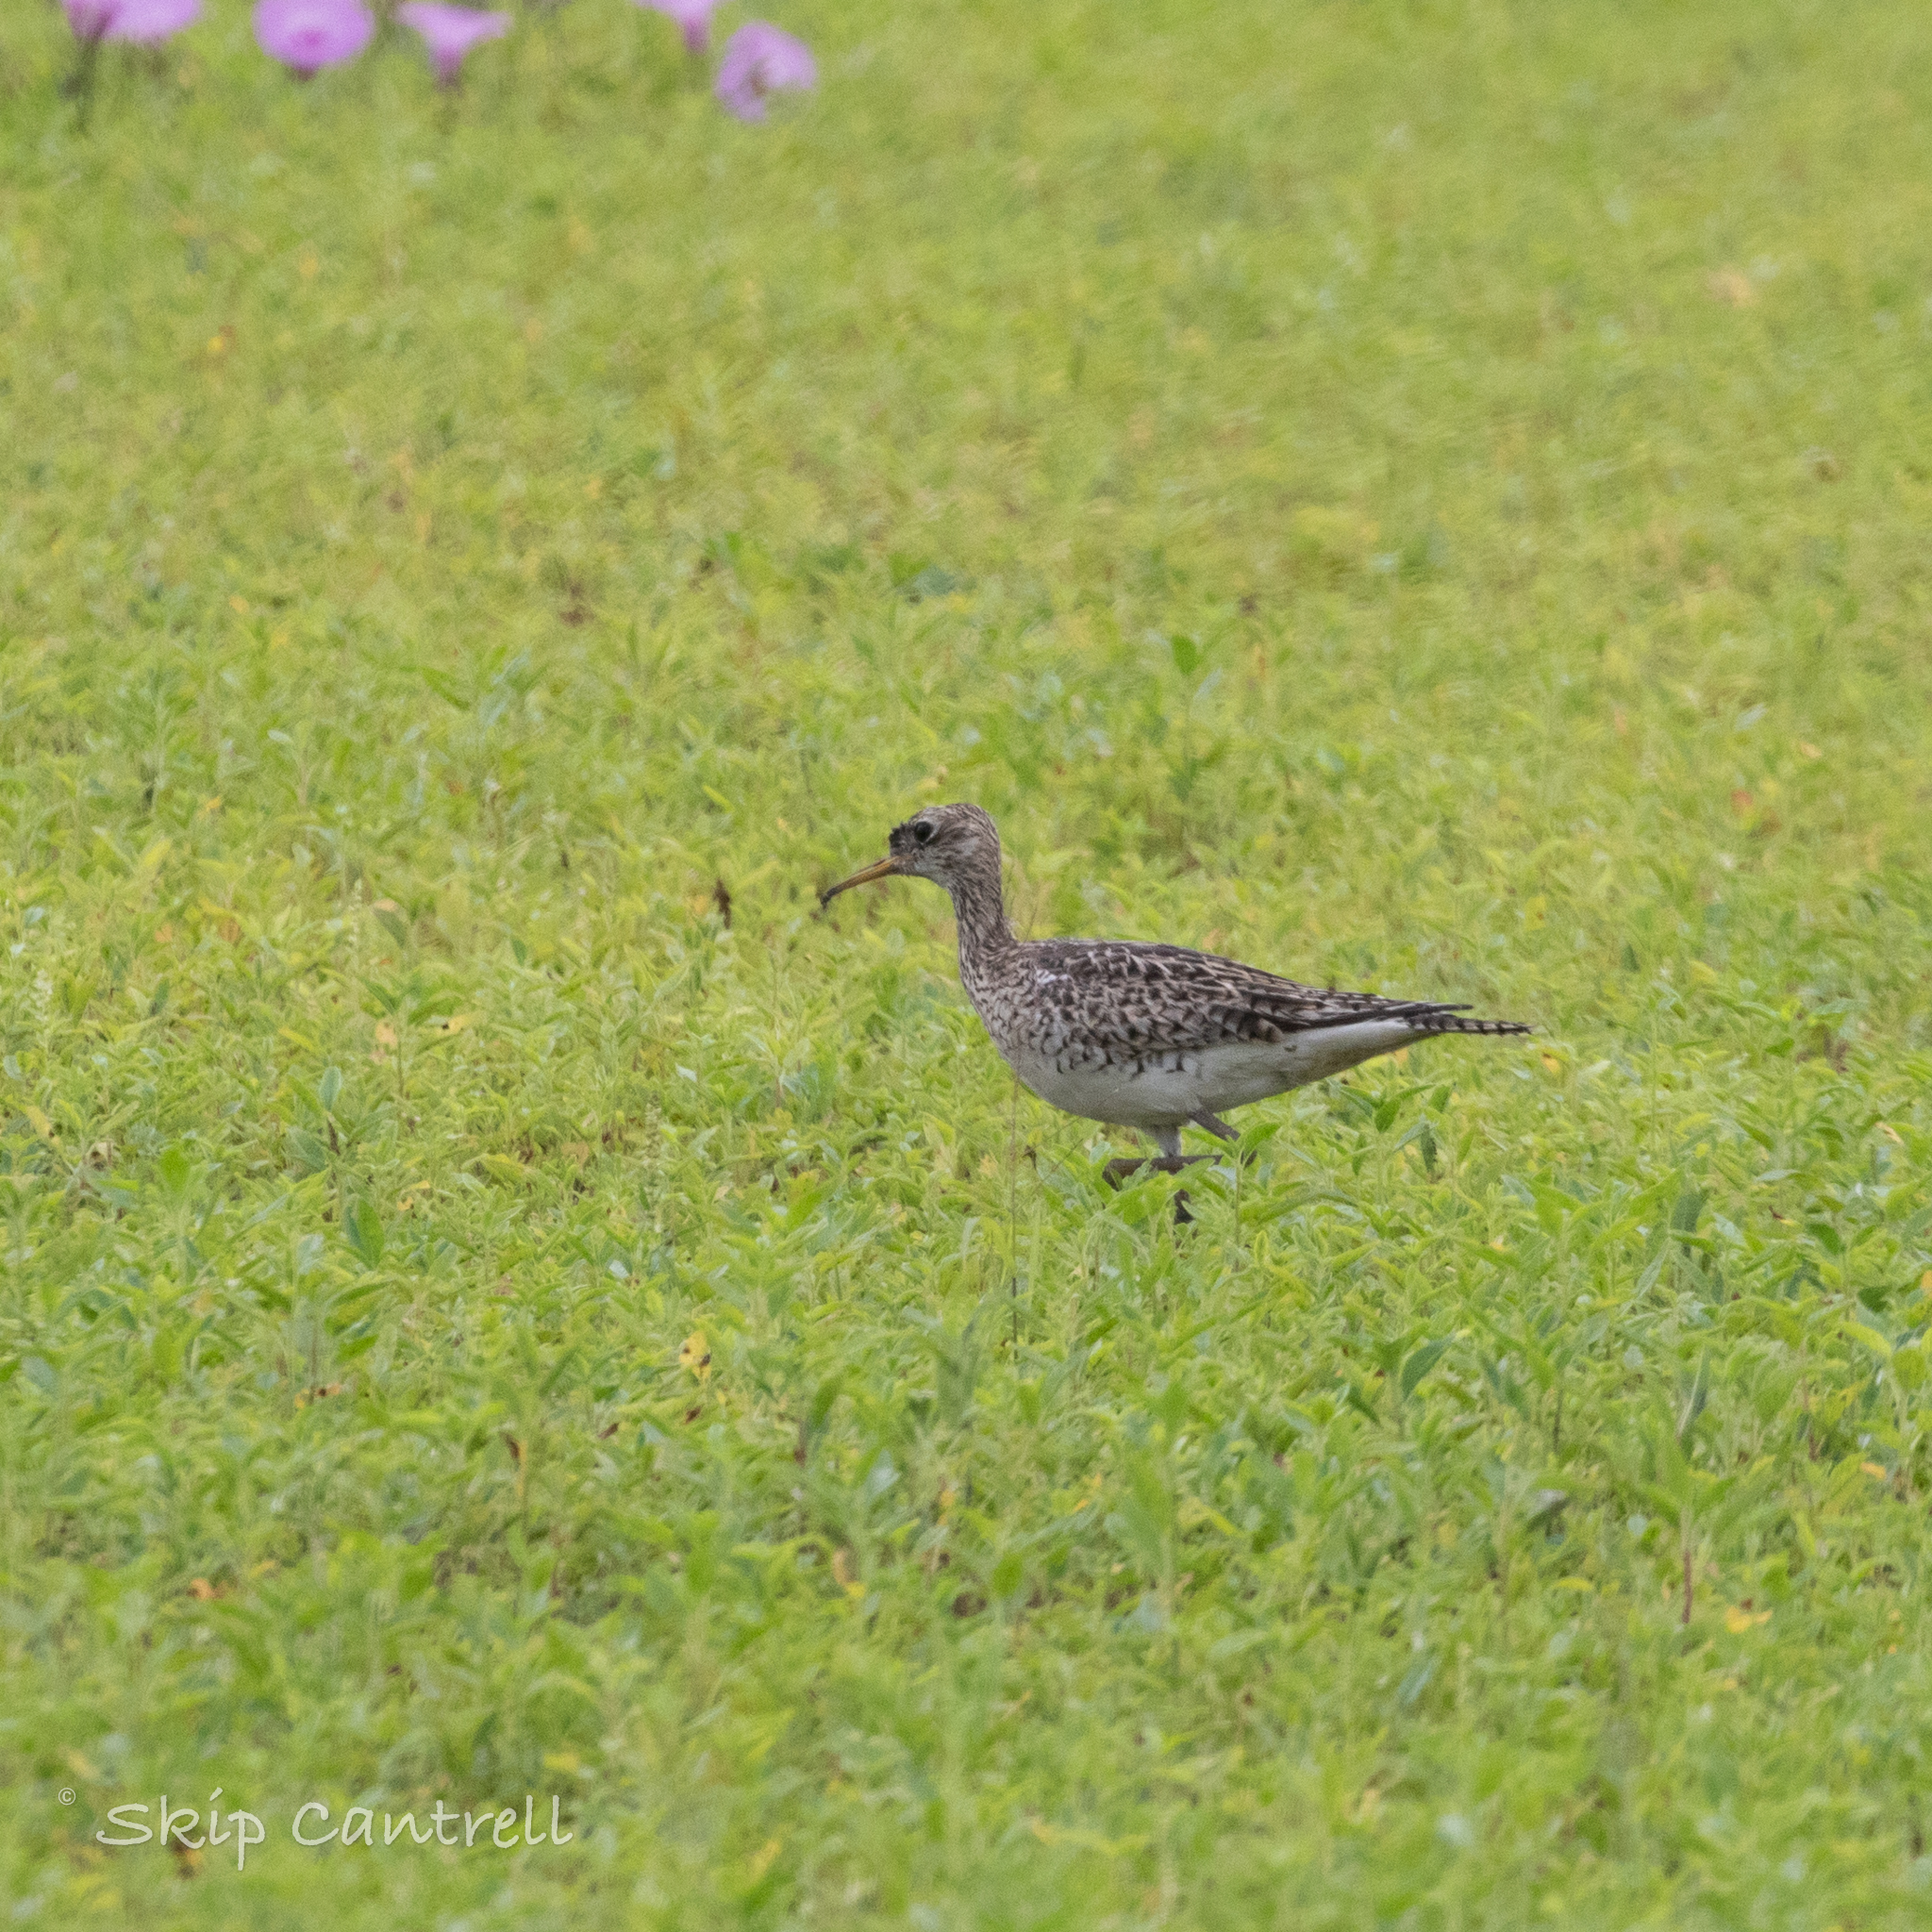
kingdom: Animalia
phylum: Chordata
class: Aves
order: Charadriiformes
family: Scolopacidae
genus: Bartramia
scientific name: Bartramia longicauda
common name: Upland sandpiper
